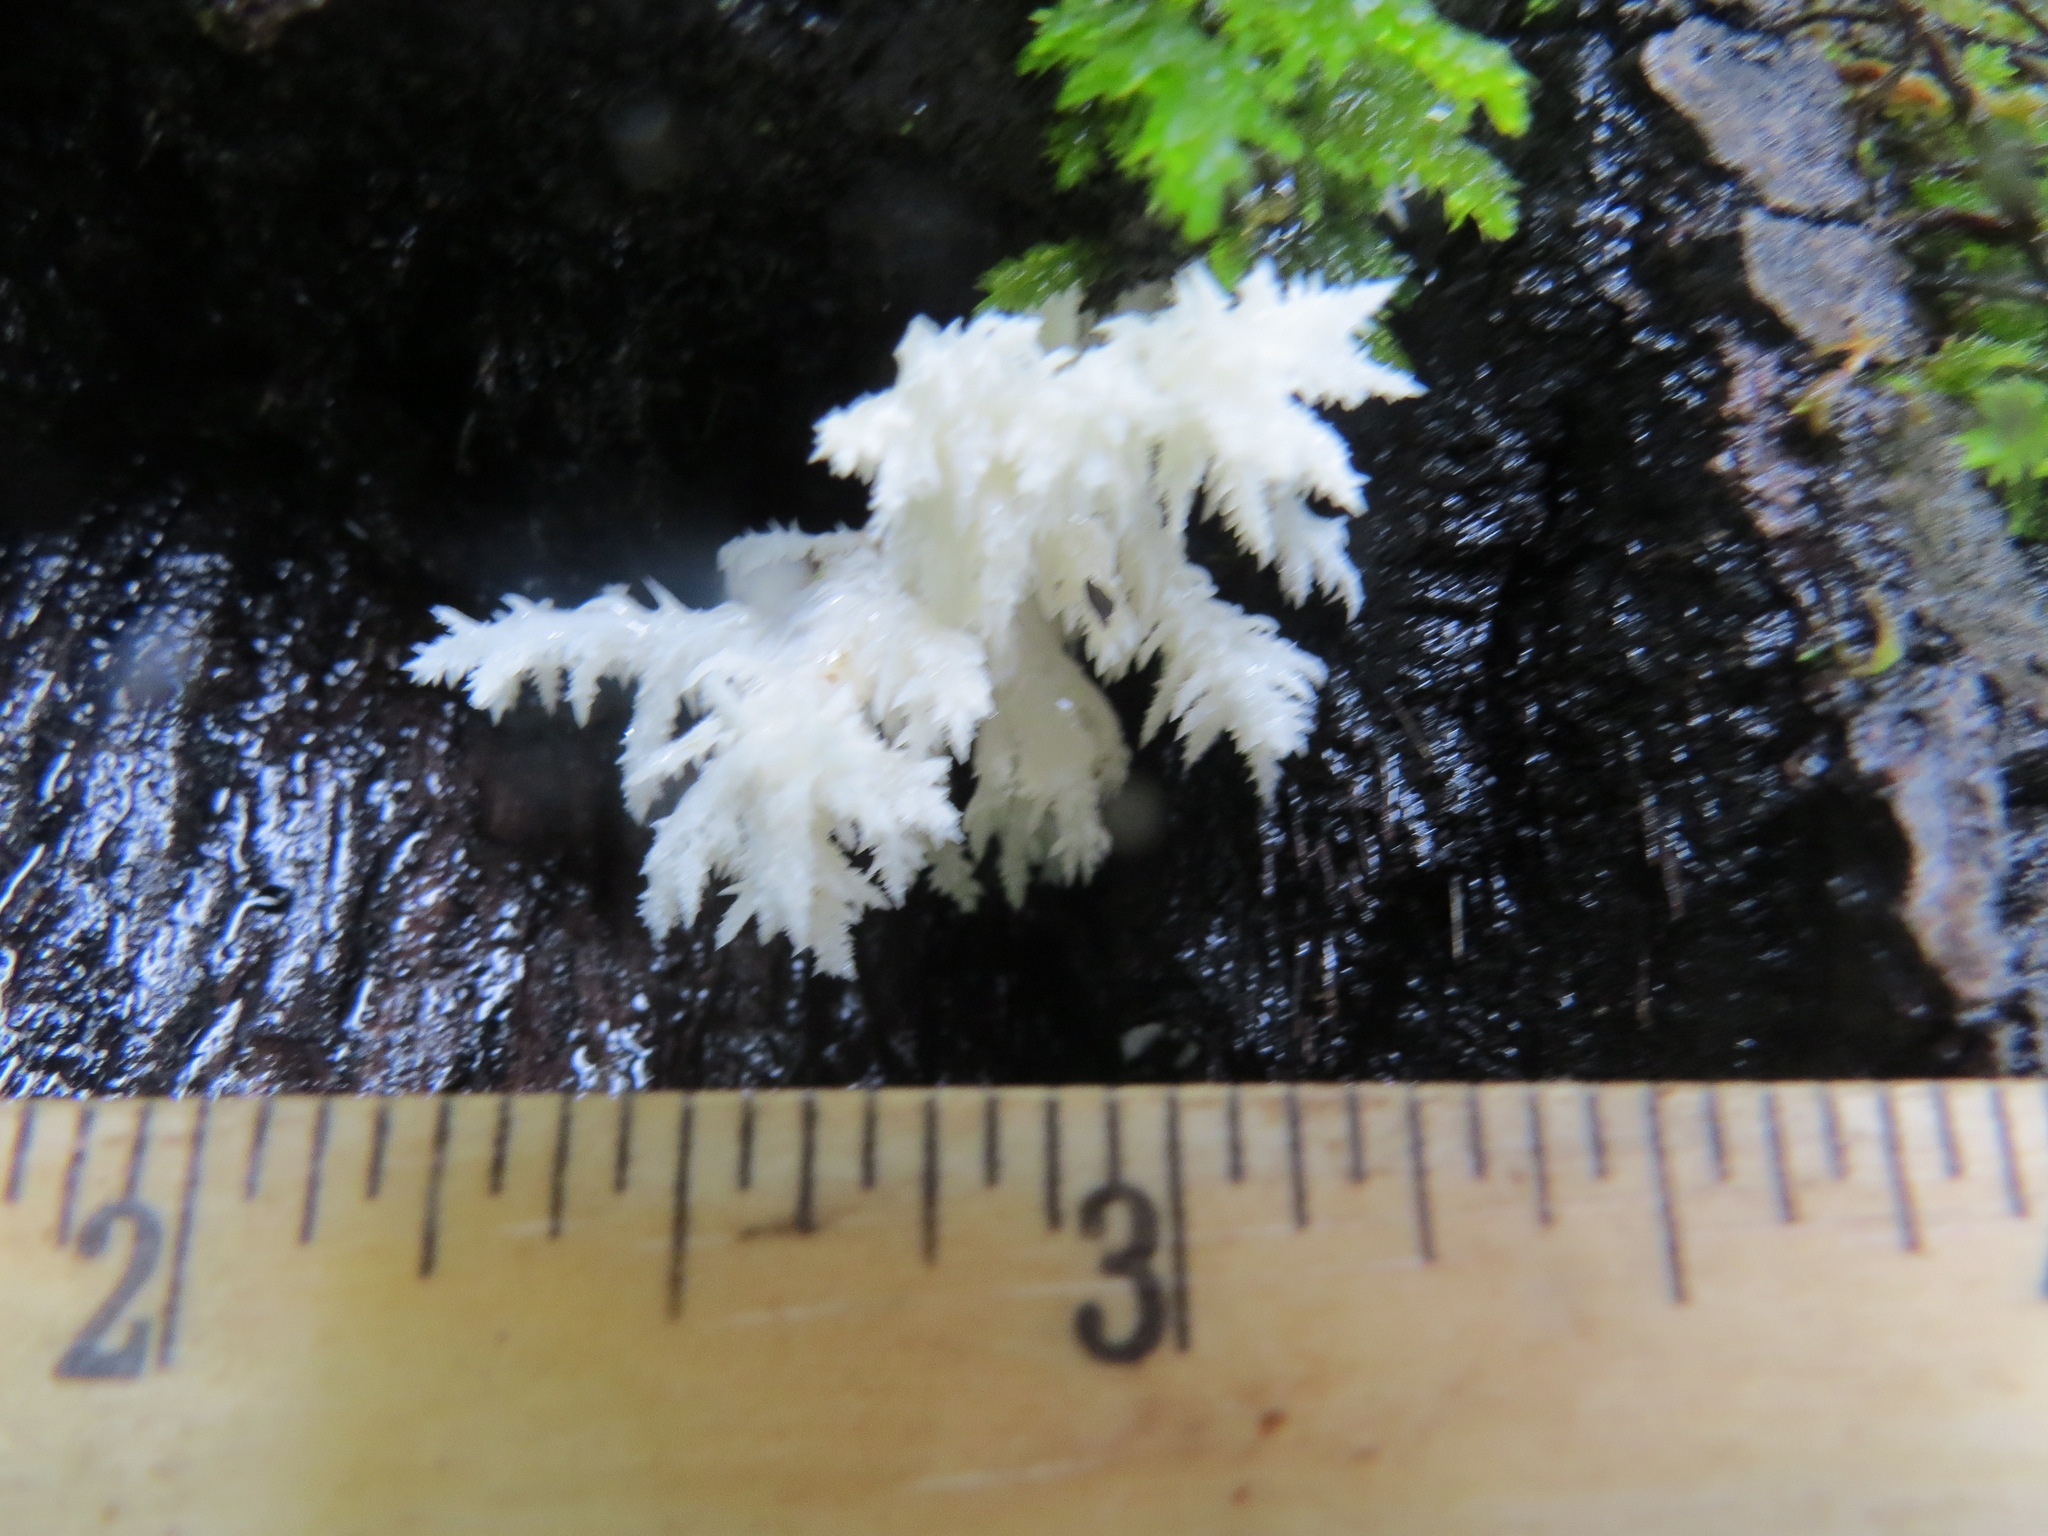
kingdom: Fungi
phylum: Basidiomycota
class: Agaricomycetes
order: Russulales
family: Hericiaceae
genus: Hericium
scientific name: Hericium coralloides
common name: Coral tooth
